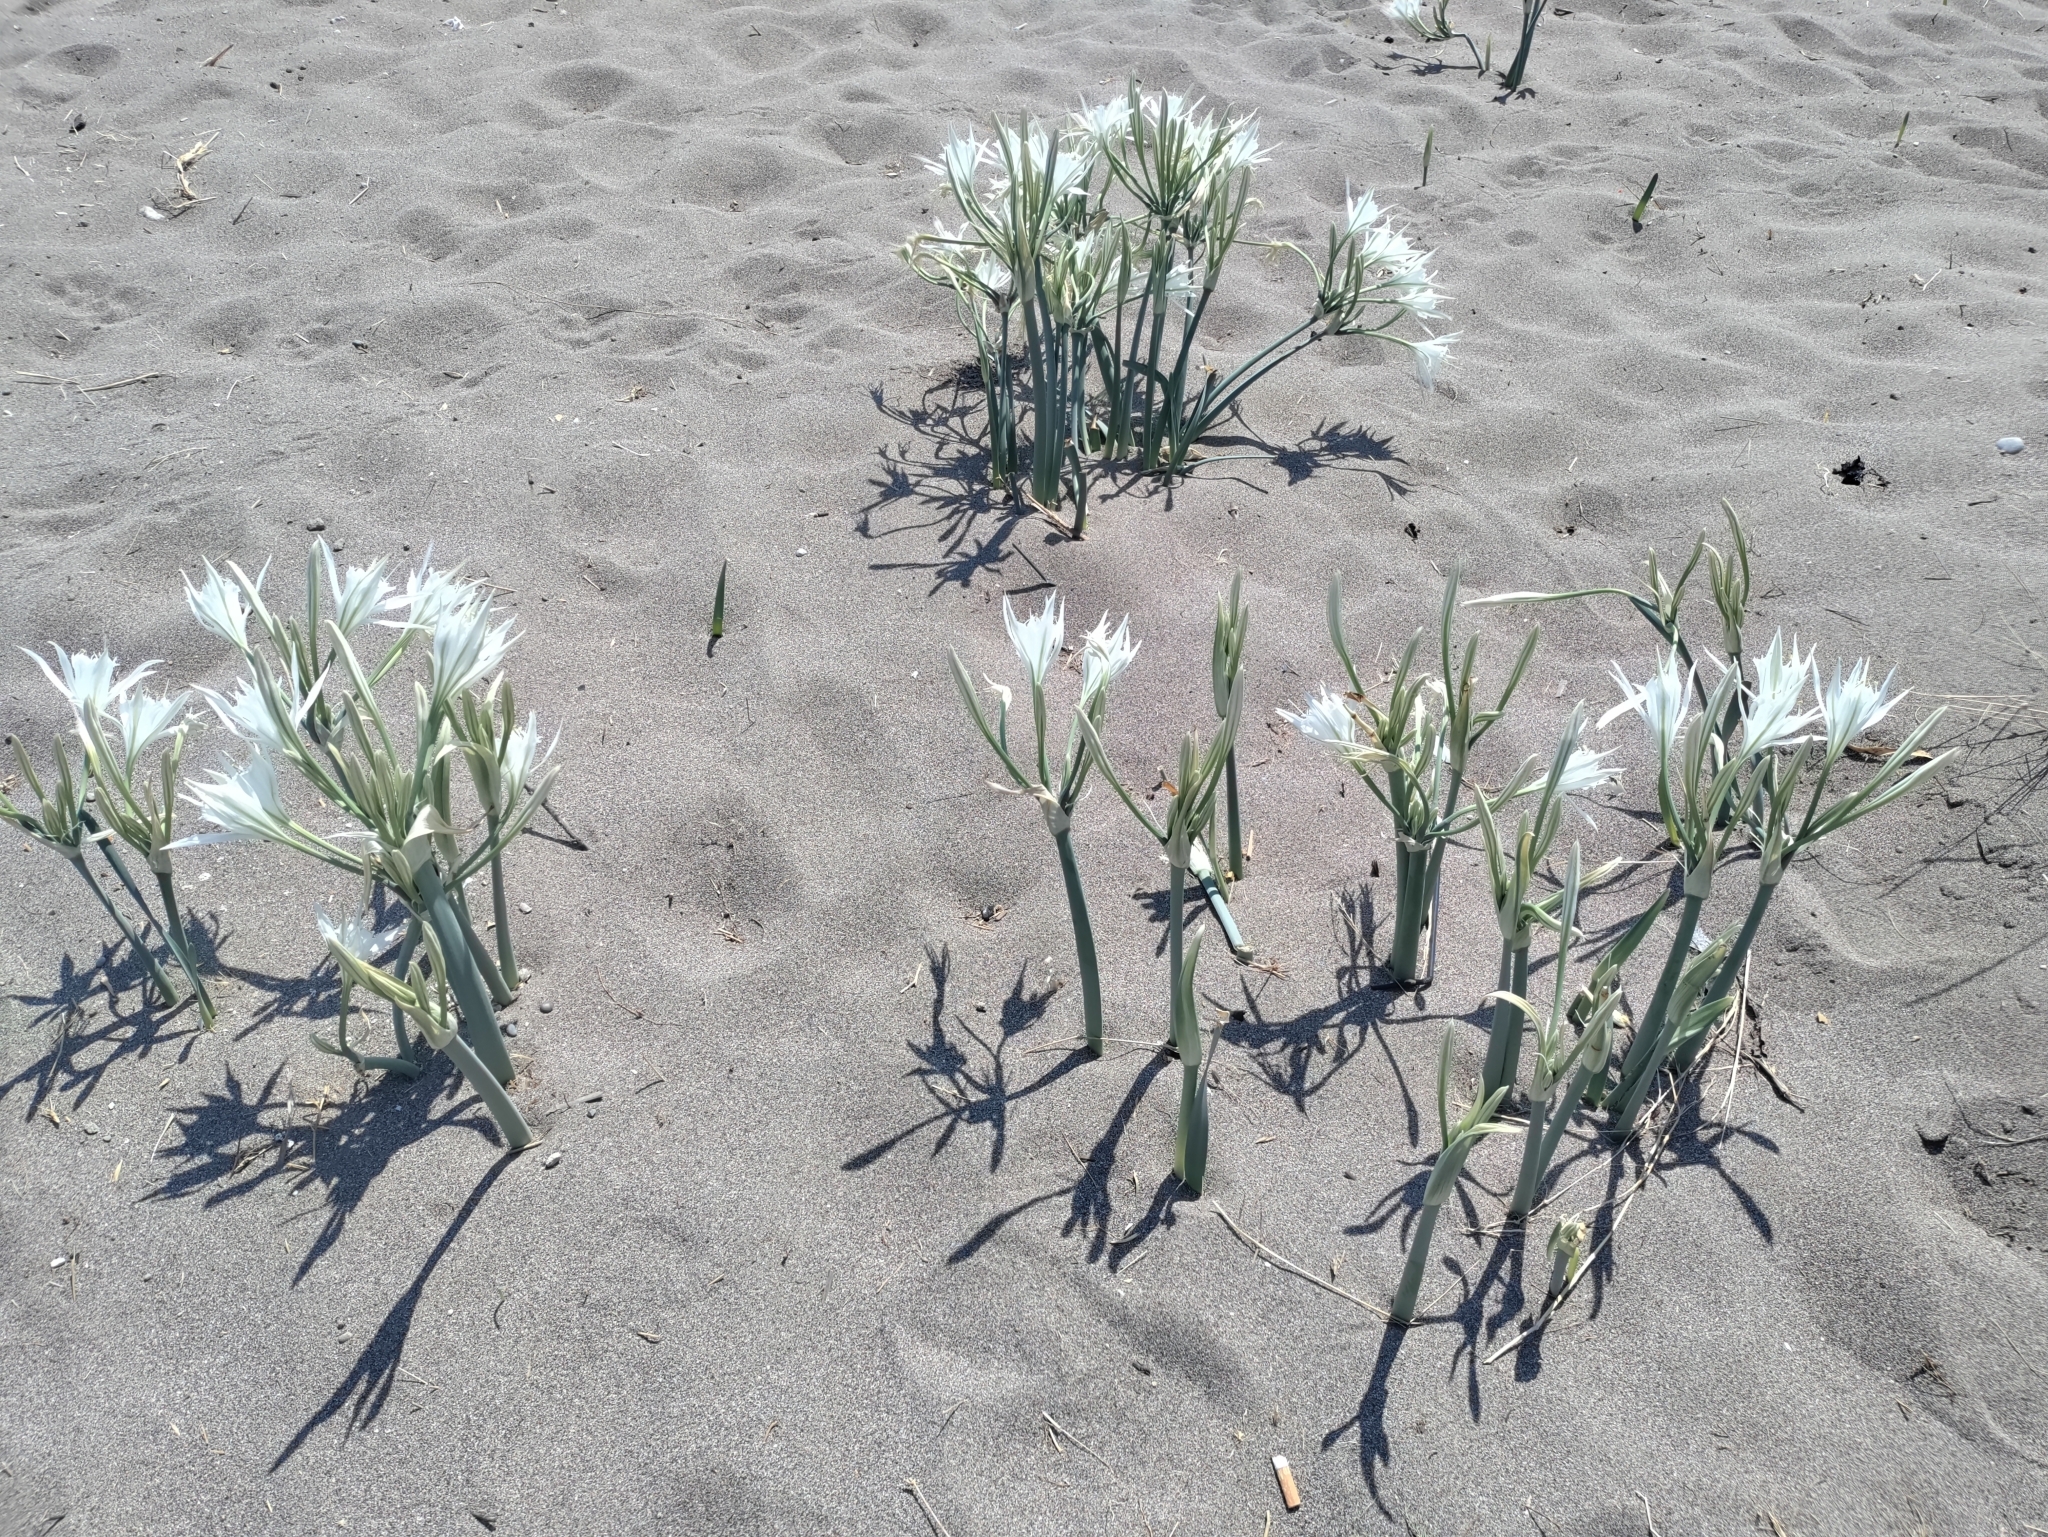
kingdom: Plantae
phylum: Tracheophyta
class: Liliopsida
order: Asparagales
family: Amaryllidaceae
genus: Pancratium
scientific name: Pancratium maritimum
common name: Sea-daffodil
